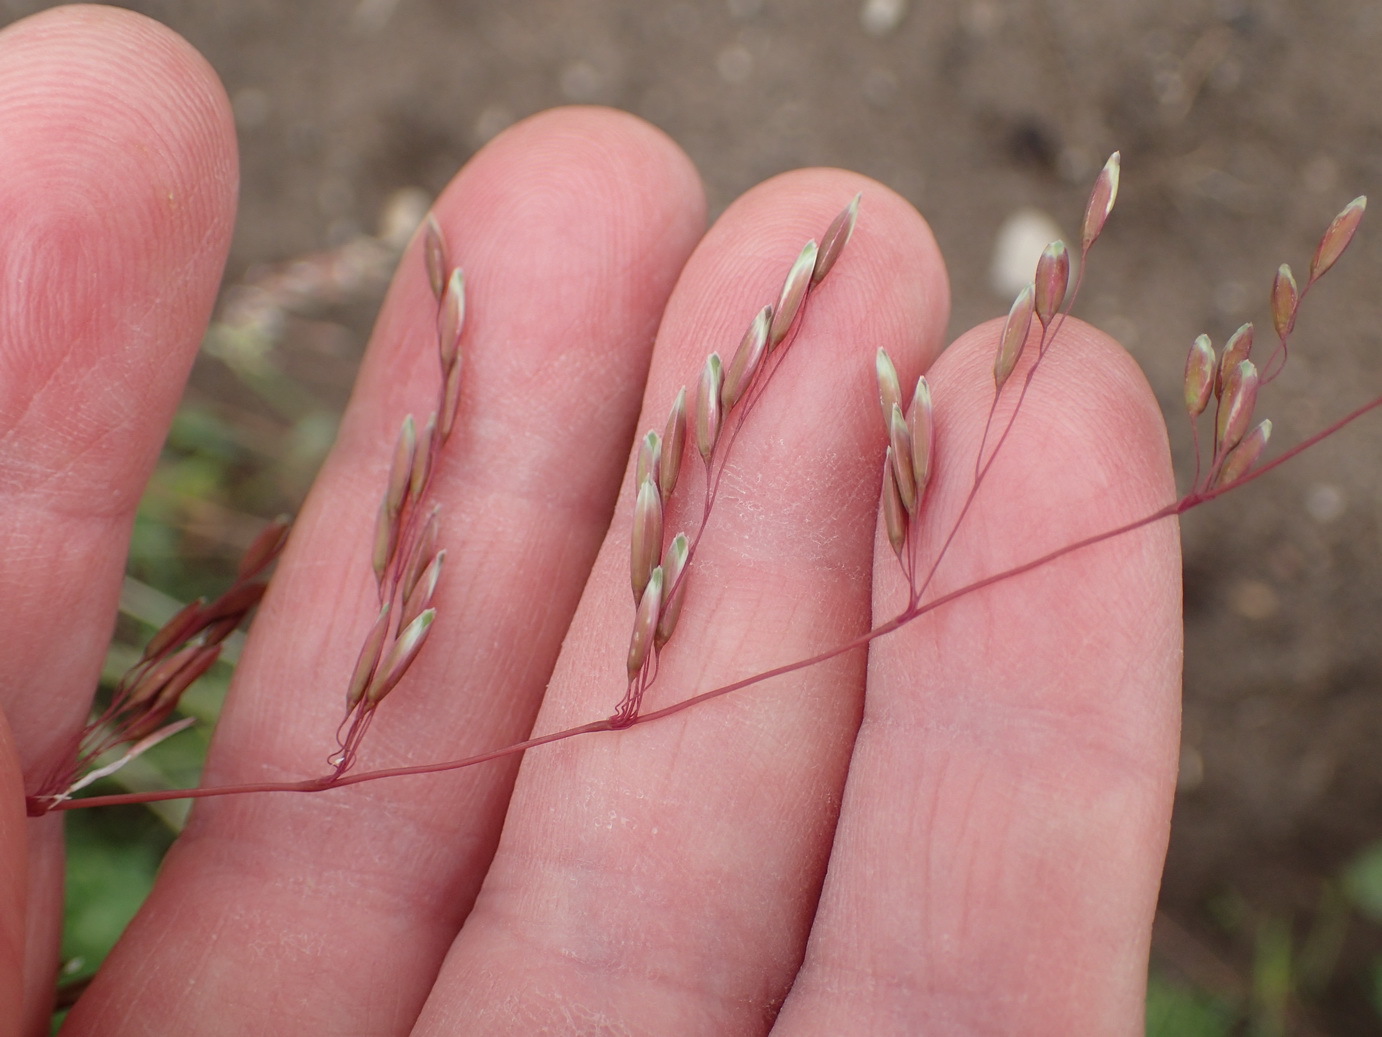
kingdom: Plantae
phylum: Tracheophyta
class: Liliopsida
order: Poales
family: Poaceae
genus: Ehrharta
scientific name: Ehrharta calycina
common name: Perennial veldtgrass
